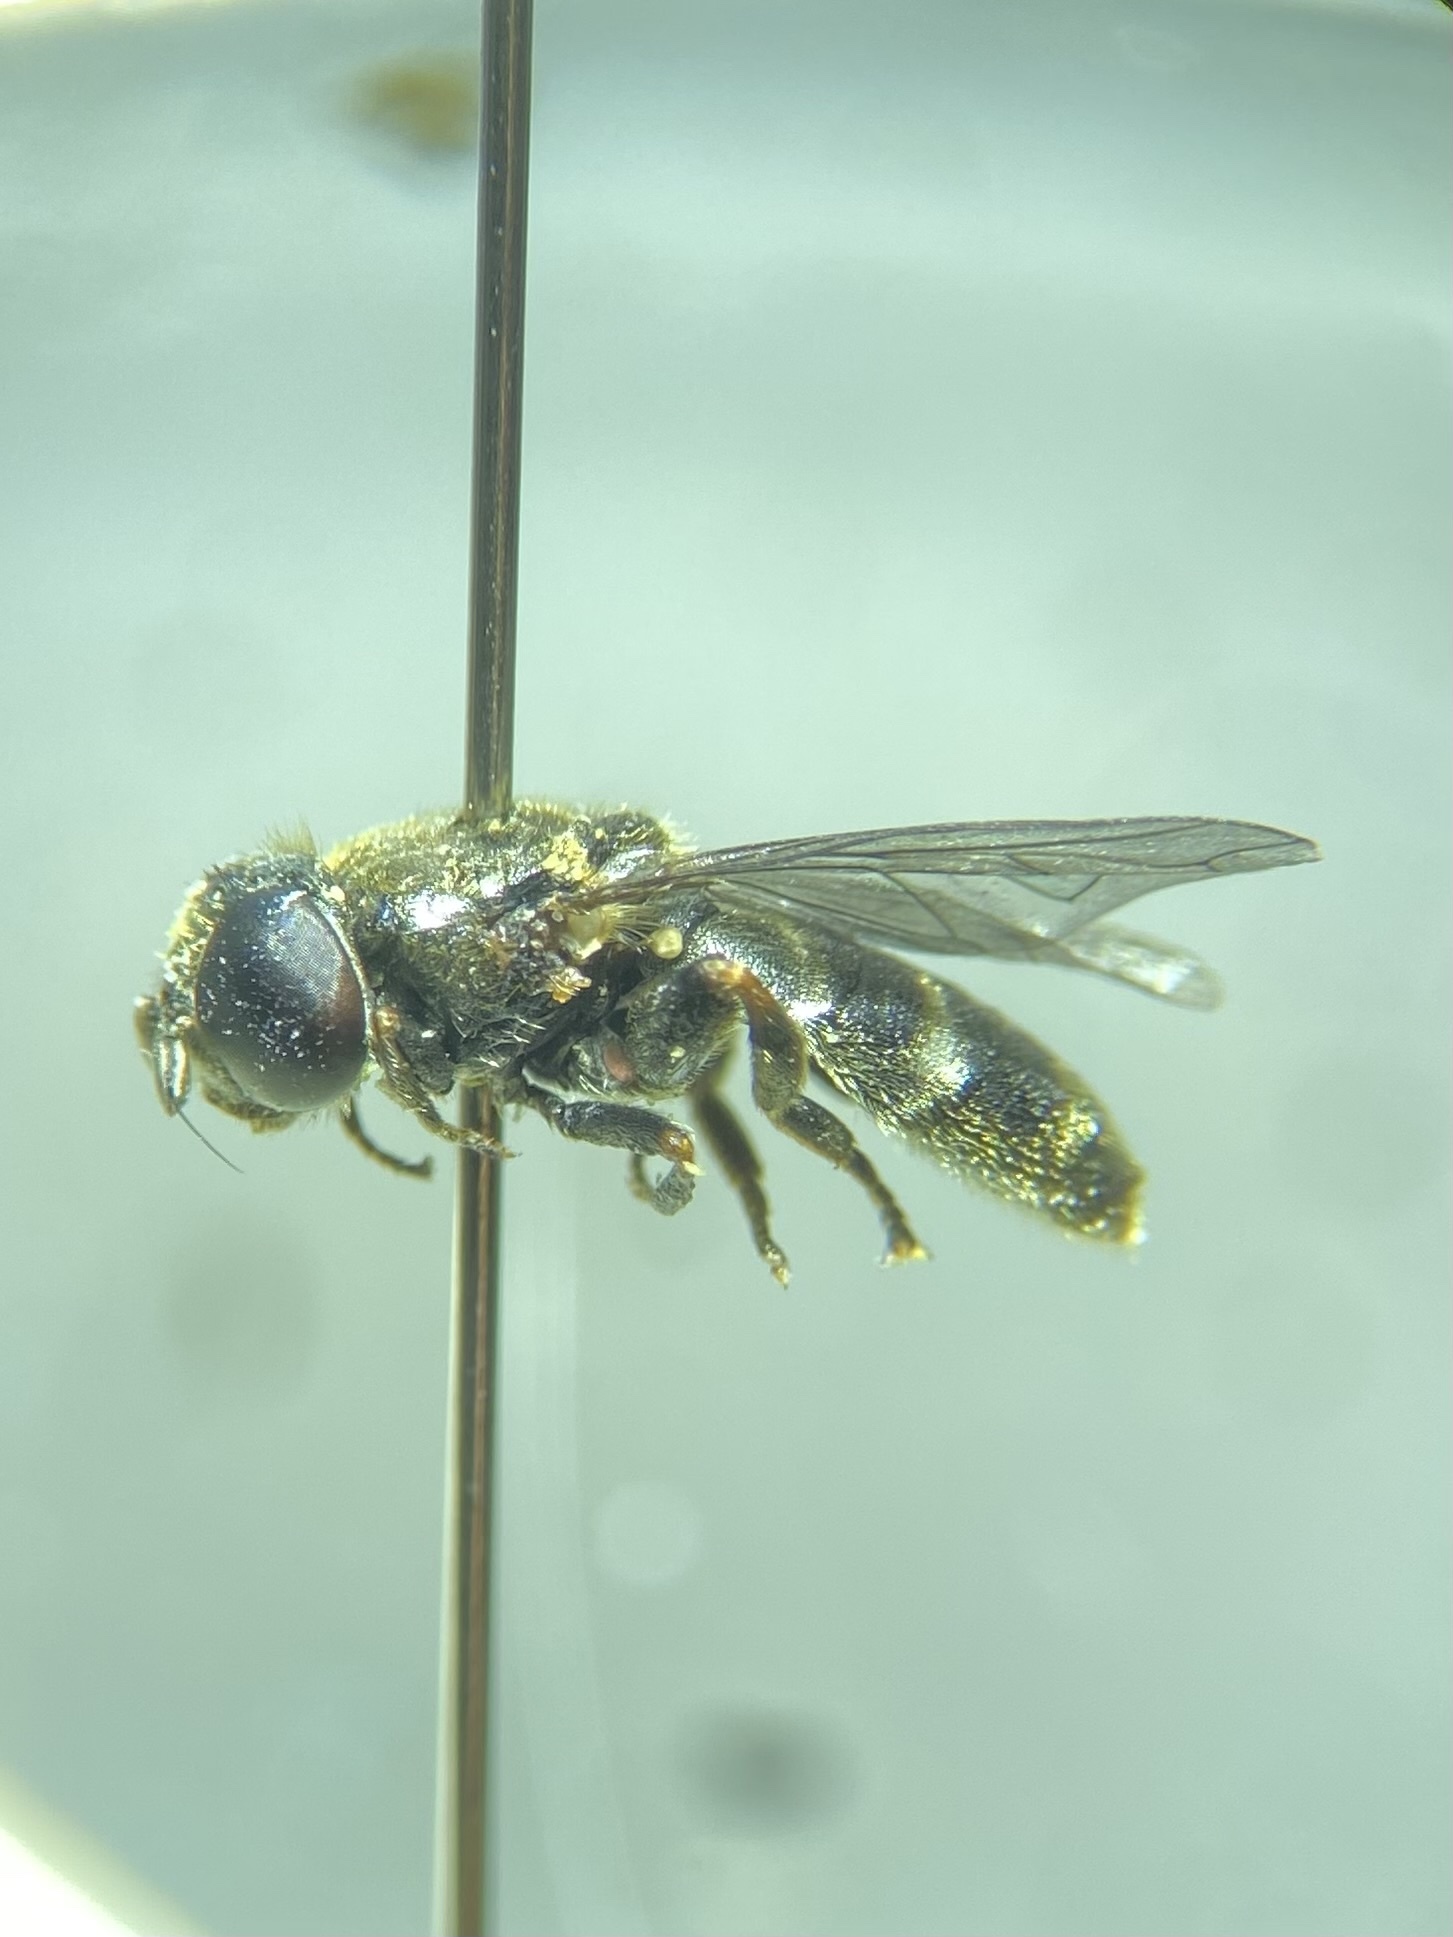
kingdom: Animalia
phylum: Arthropoda
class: Insecta
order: Diptera
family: Syrphidae
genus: Eumerus
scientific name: Eumerus
